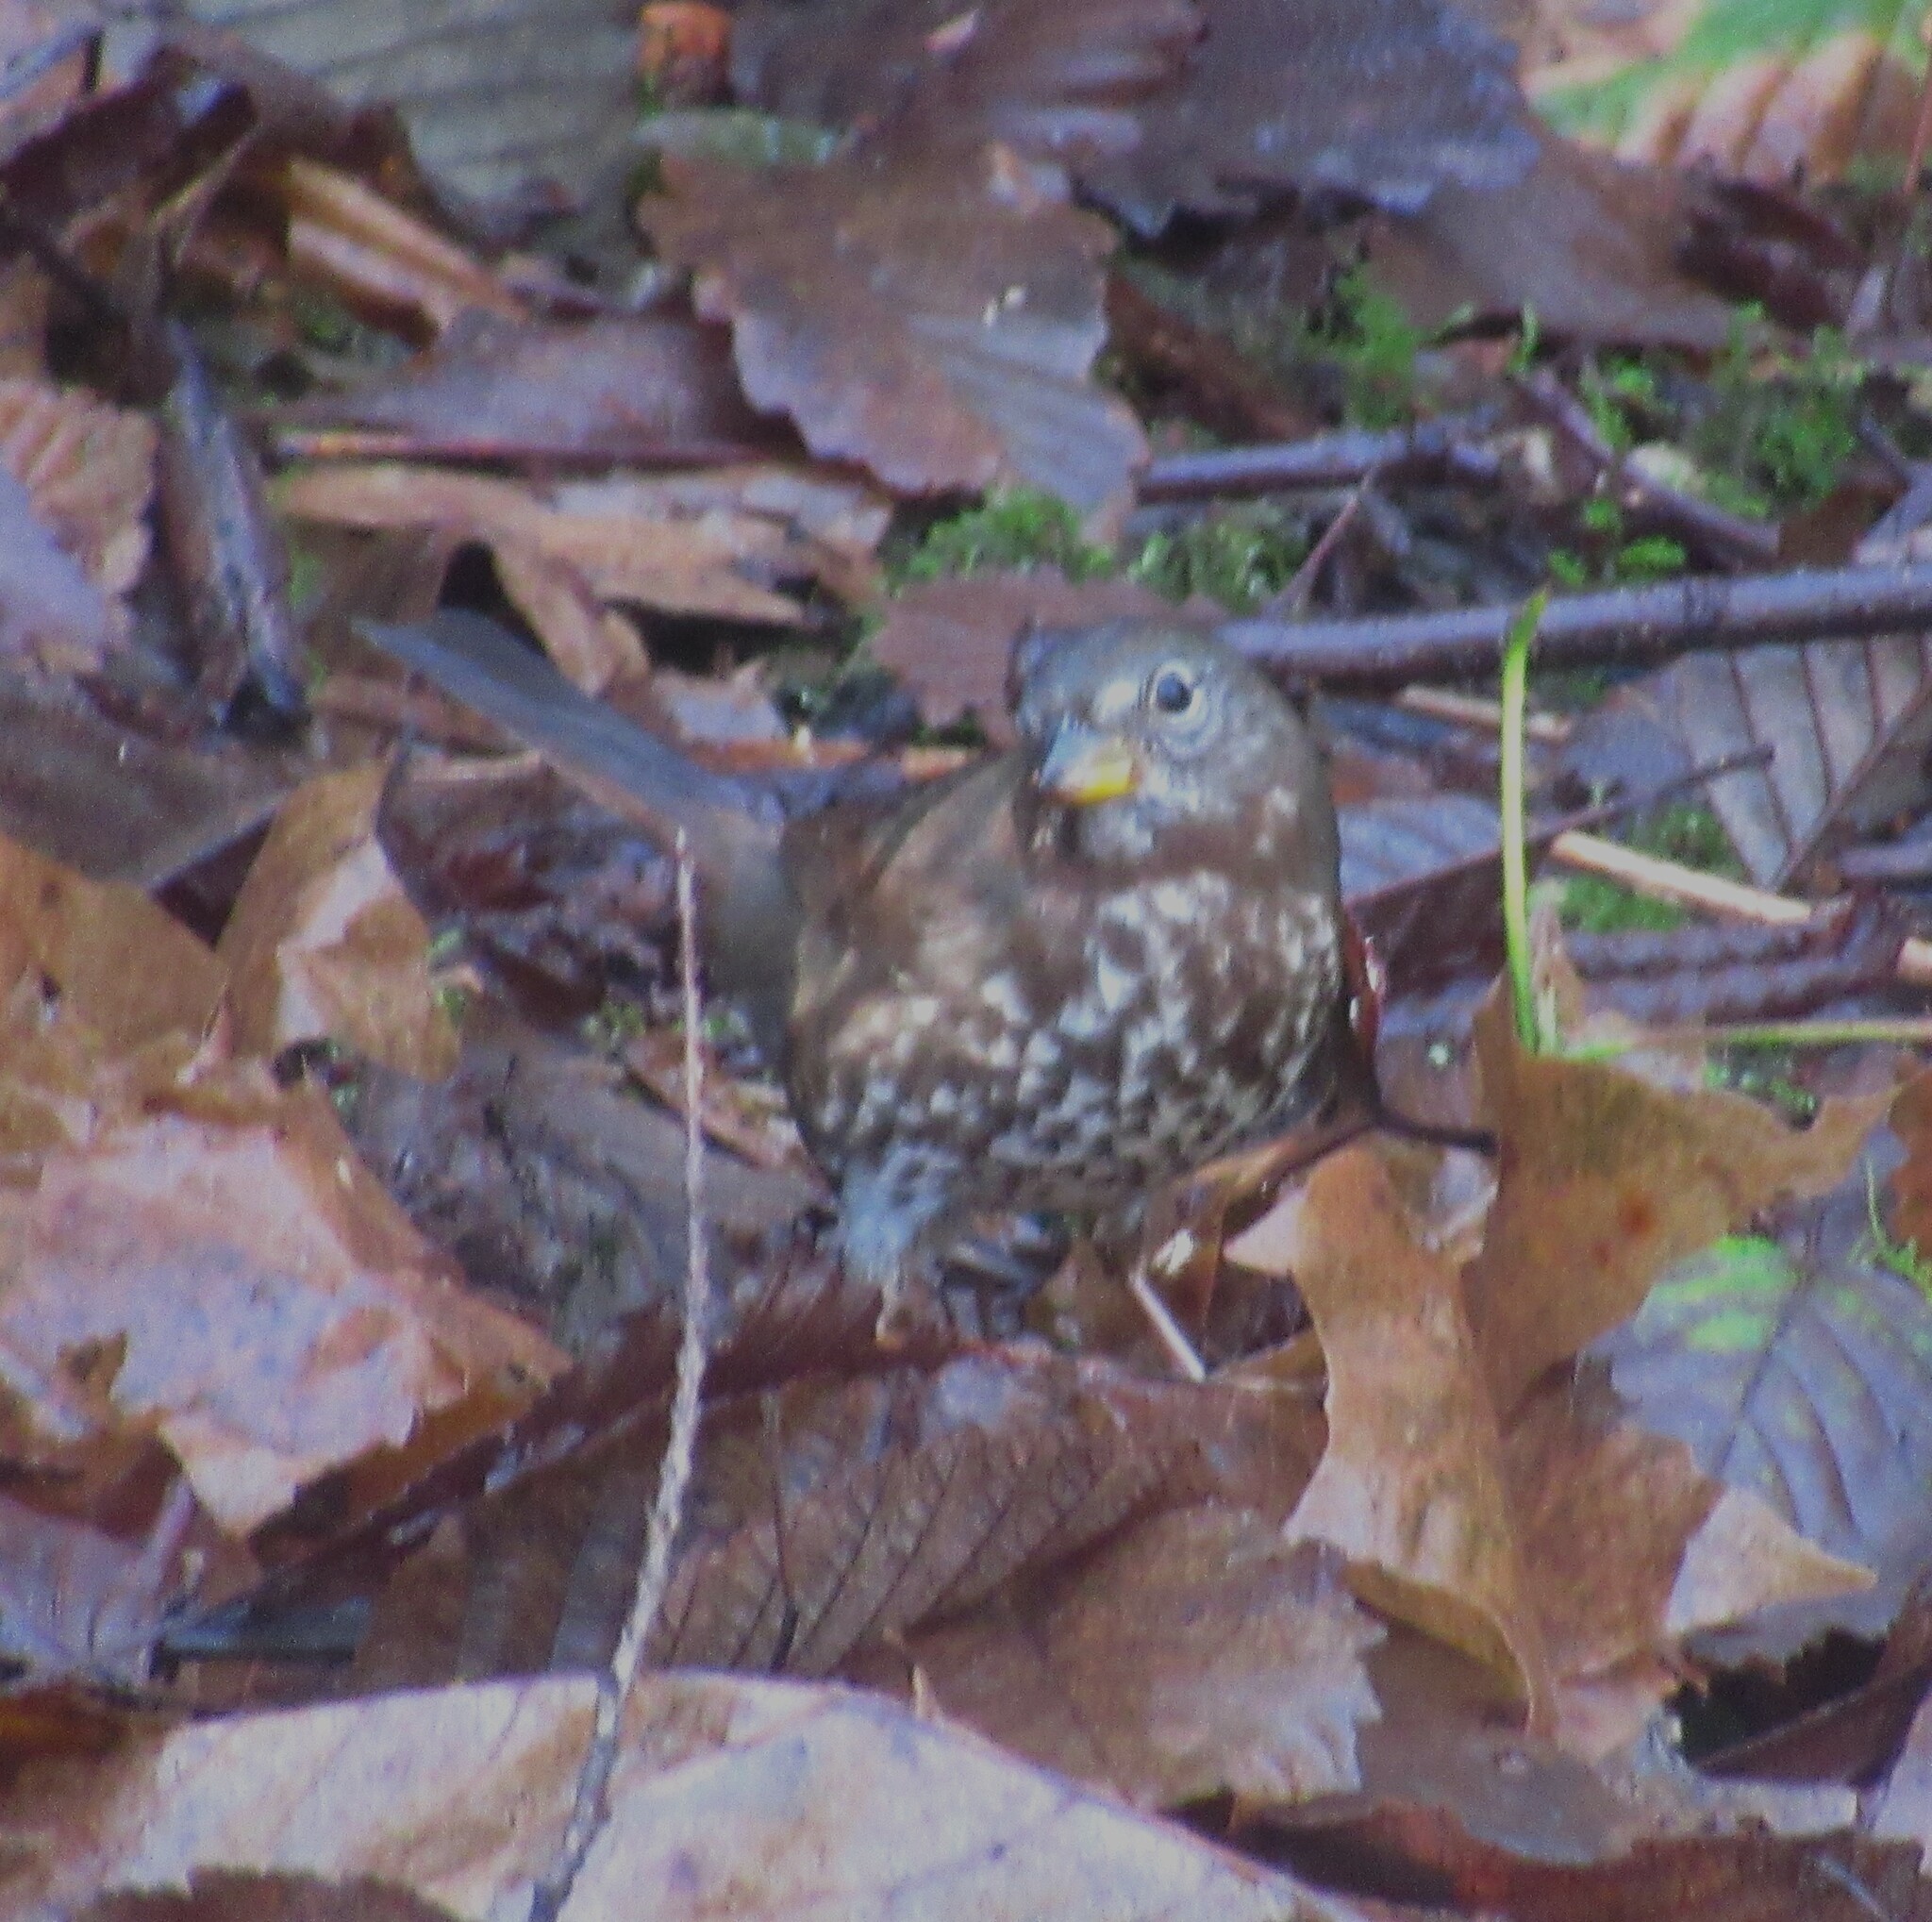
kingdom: Animalia
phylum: Chordata
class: Aves
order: Passeriformes
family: Passerellidae
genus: Passerella
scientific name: Passerella iliaca
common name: Fox sparrow
